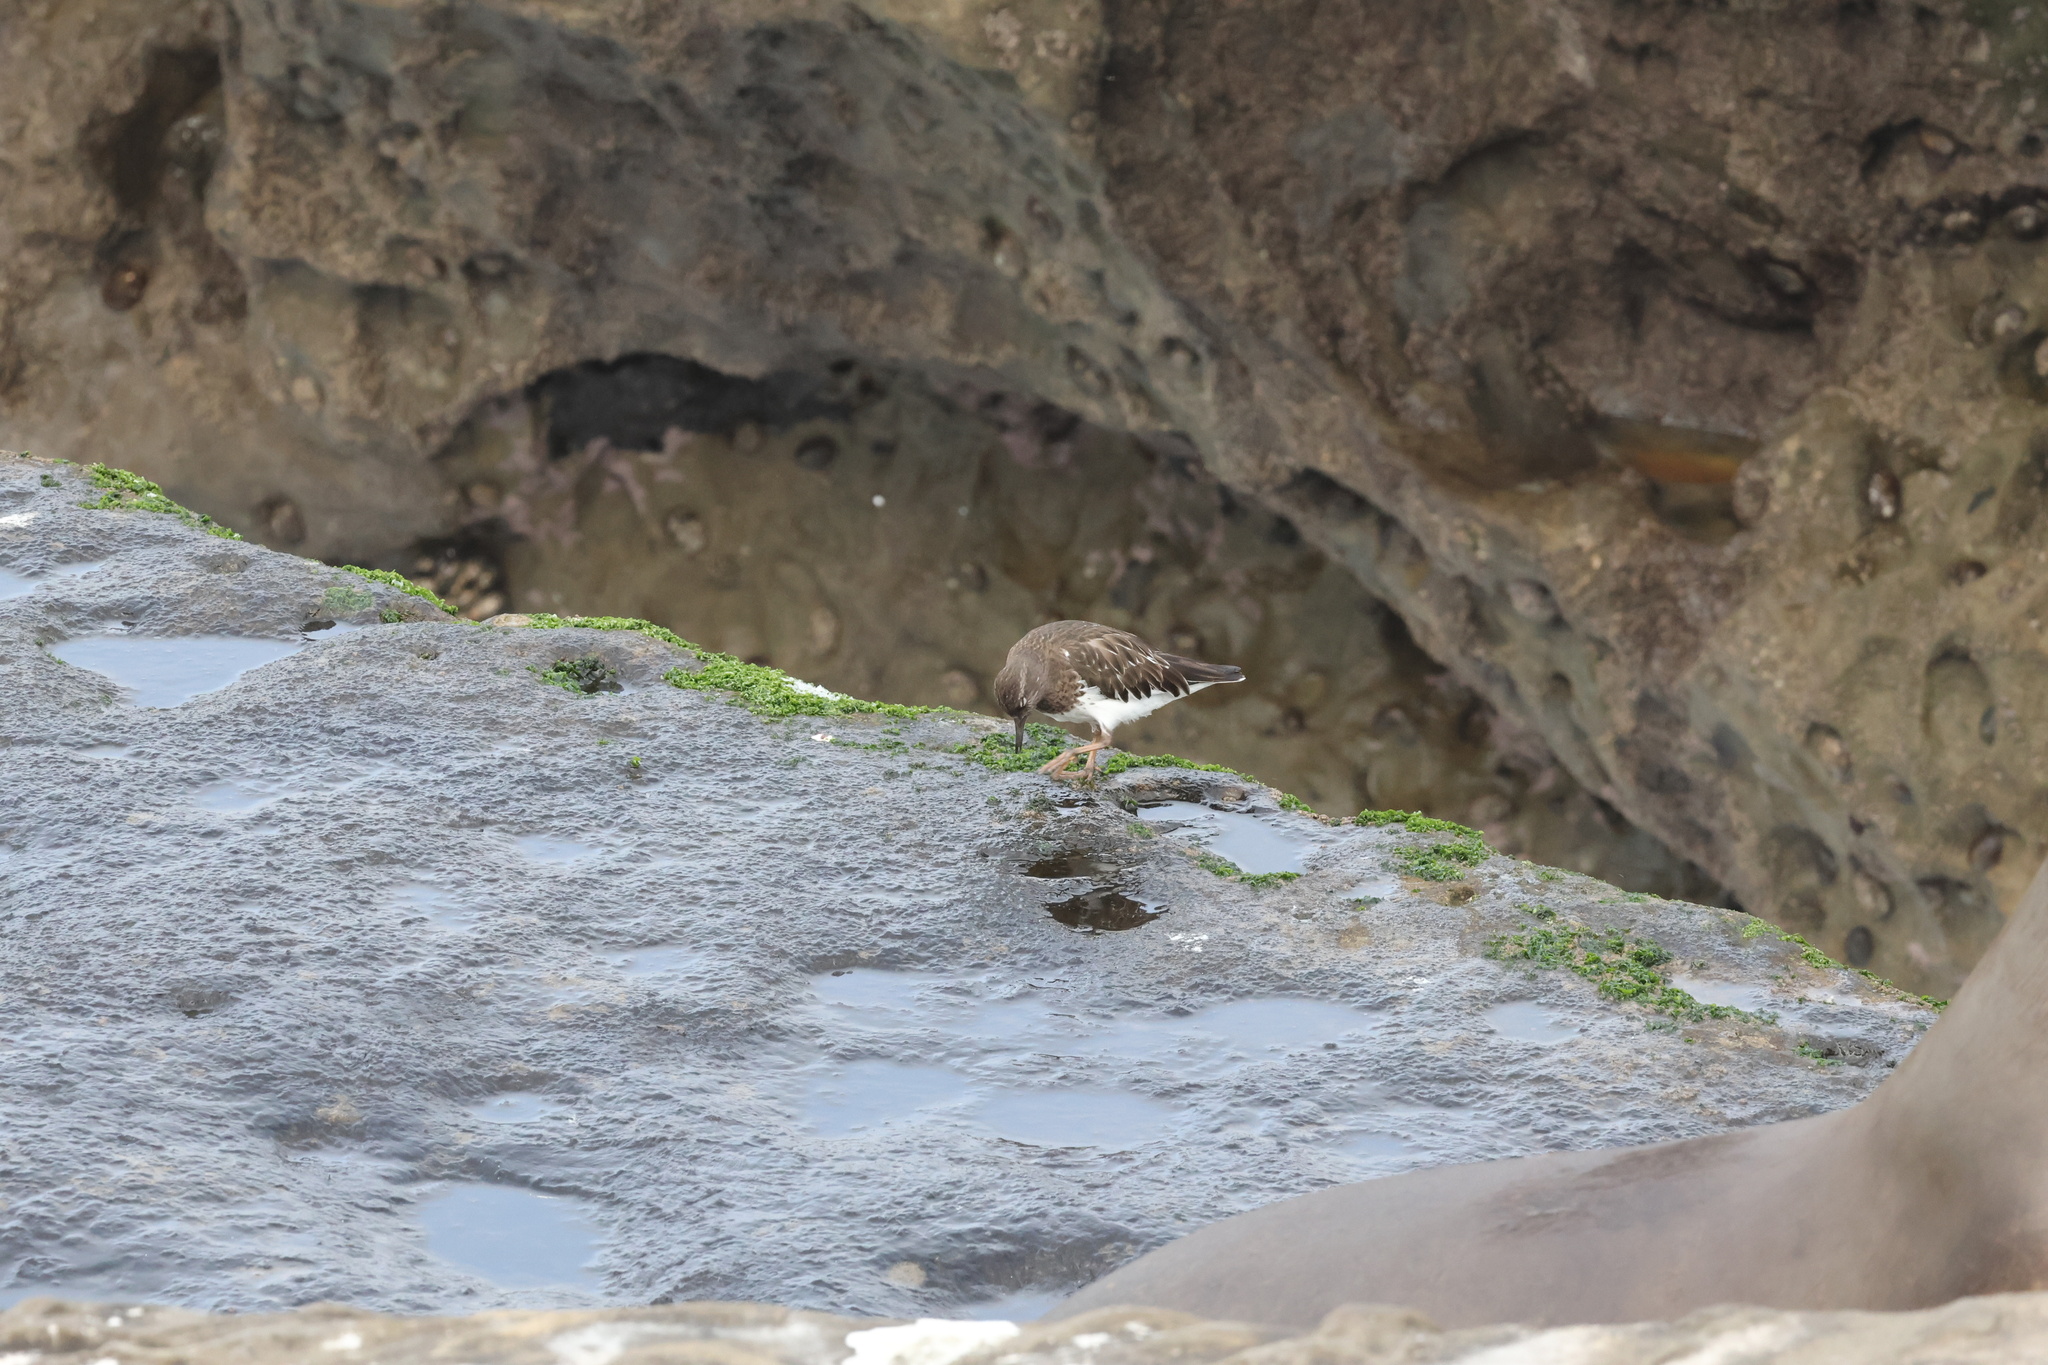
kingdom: Animalia
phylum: Chordata
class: Aves
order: Charadriiformes
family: Scolopacidae
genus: Arenaria
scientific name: Arenaria melanocephala
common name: Black turnstone
